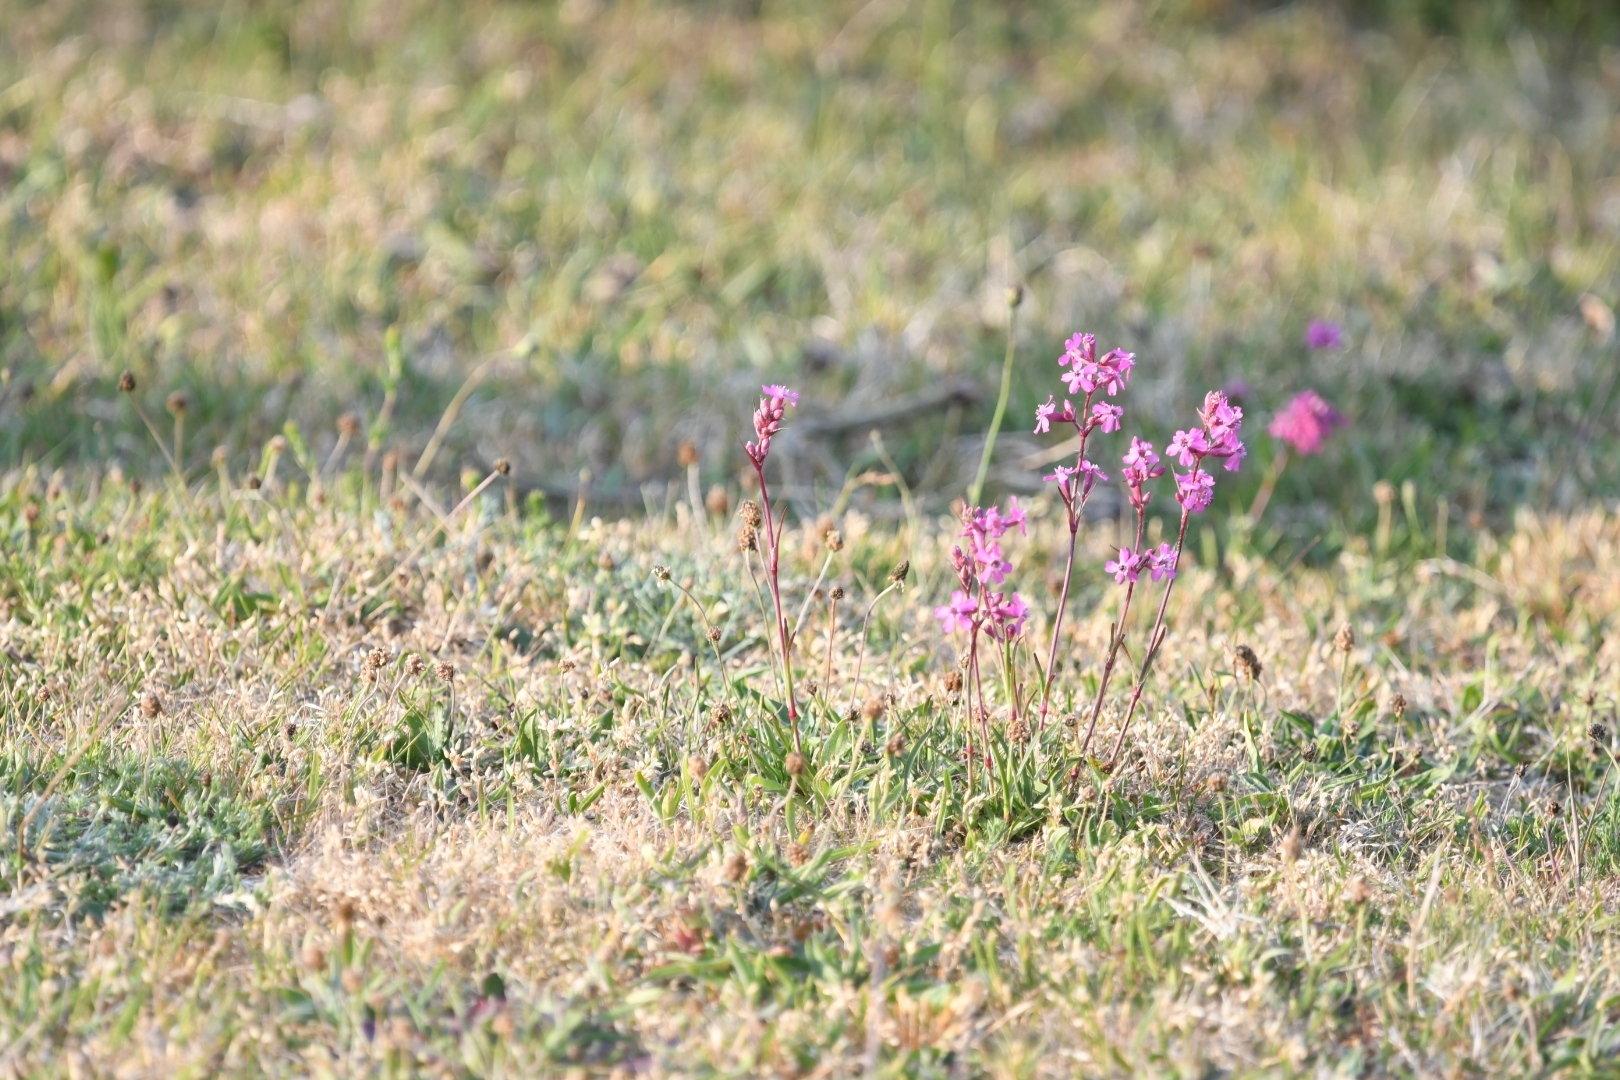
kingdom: Plantae
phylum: Tracheophyta
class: Magnoliopsida
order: Caryophyllales
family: Caryophyllaceae
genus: Viscaria
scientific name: Viscaria vulgaris
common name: Clammy campion
